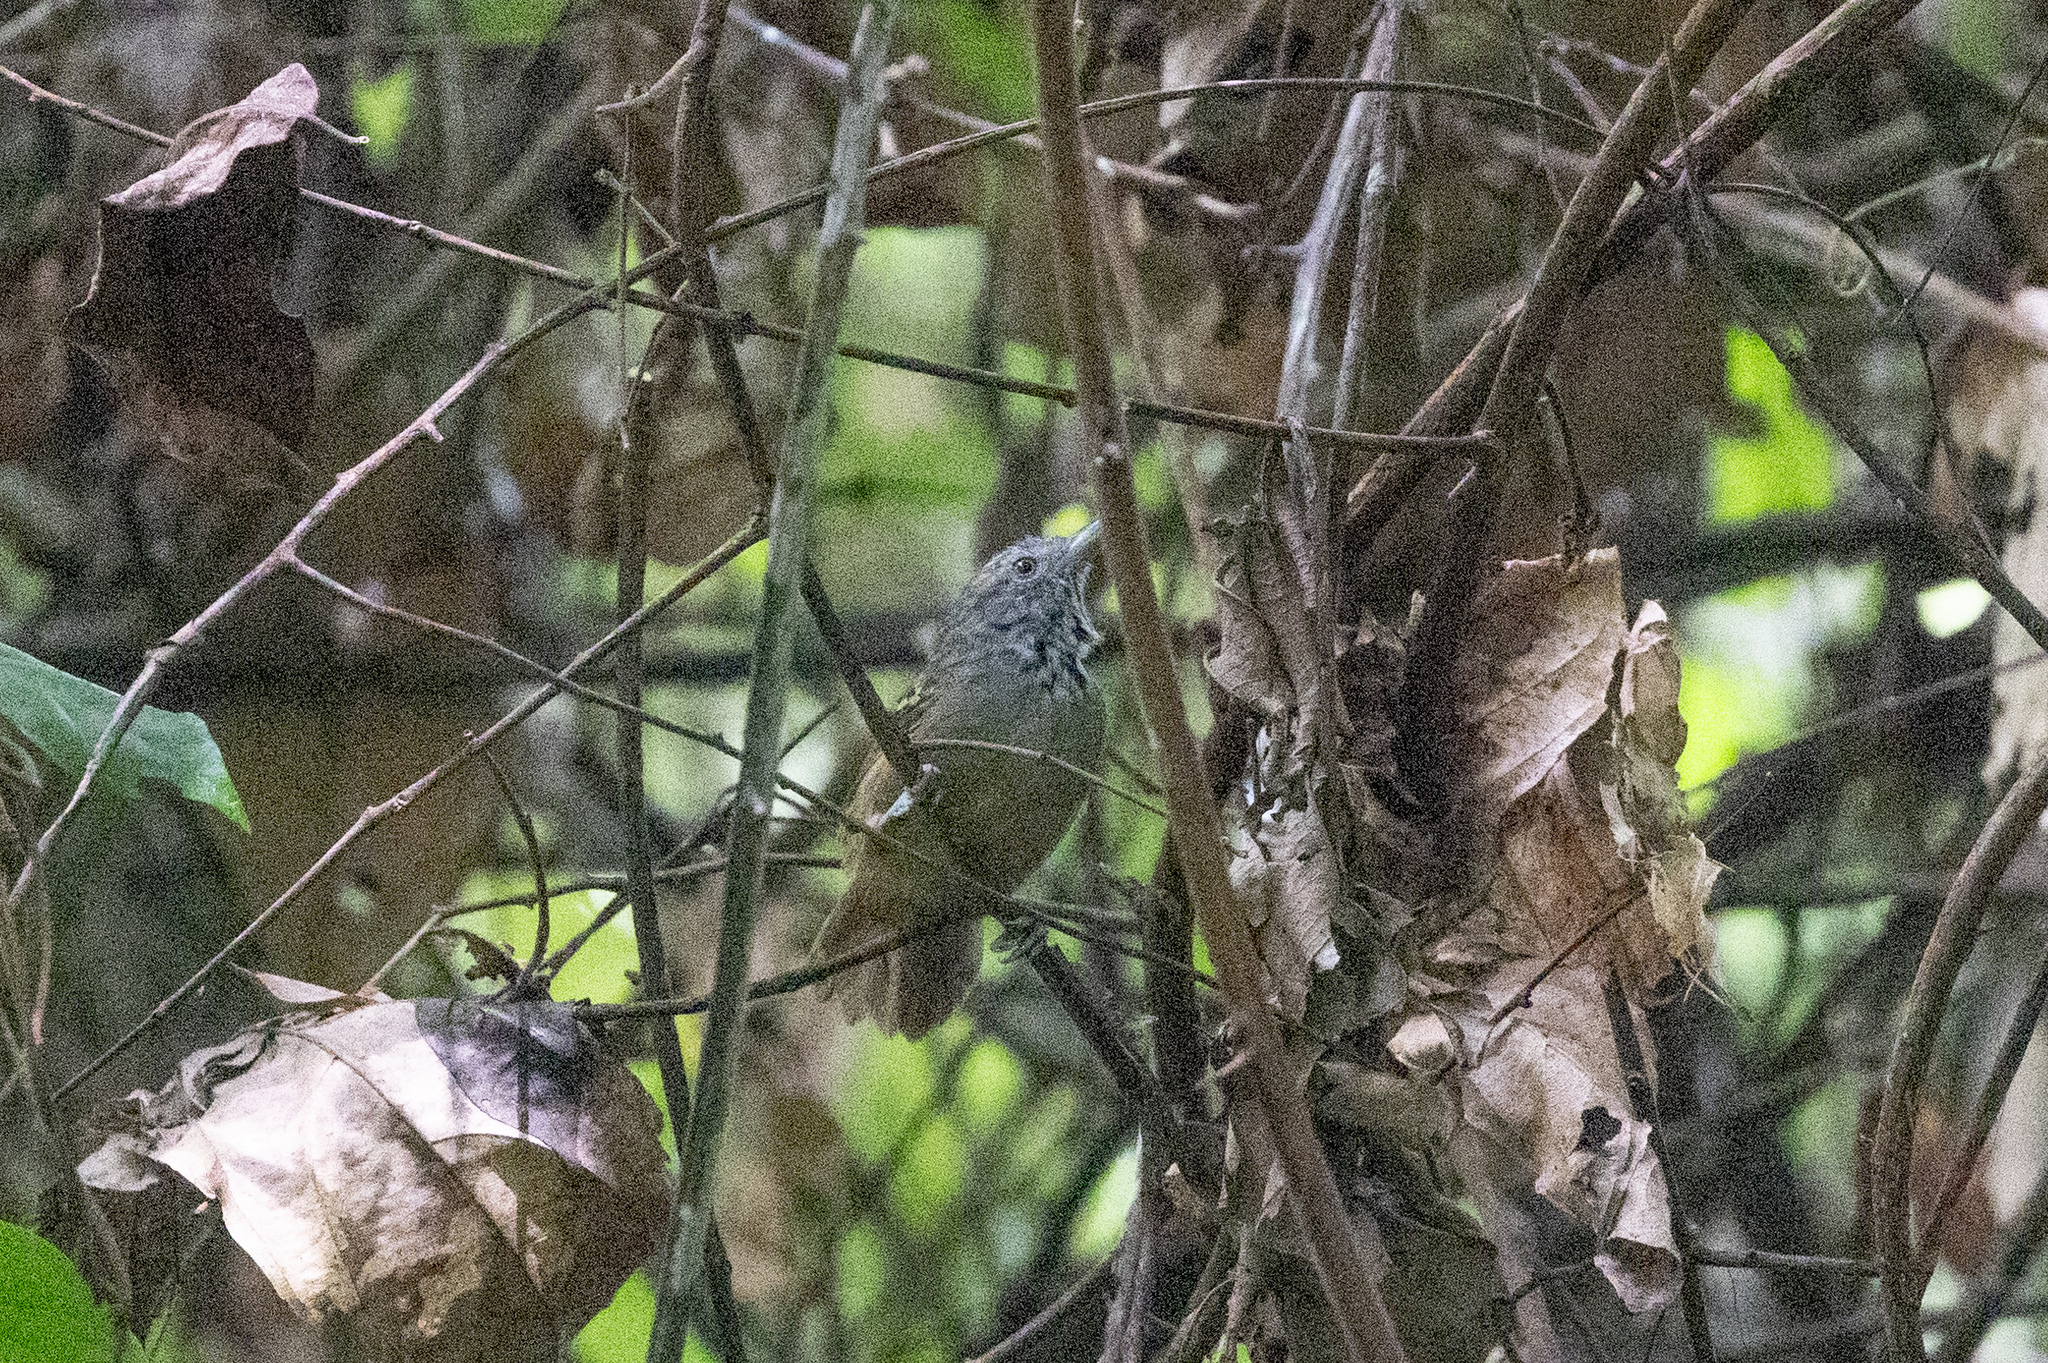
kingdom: Animalia
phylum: Chordata
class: Aves
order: Passeriformes
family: Thamnophilidae
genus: Epinecrophylla
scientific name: Epinecrophylla fulviventris
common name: Checker-throated antwren
